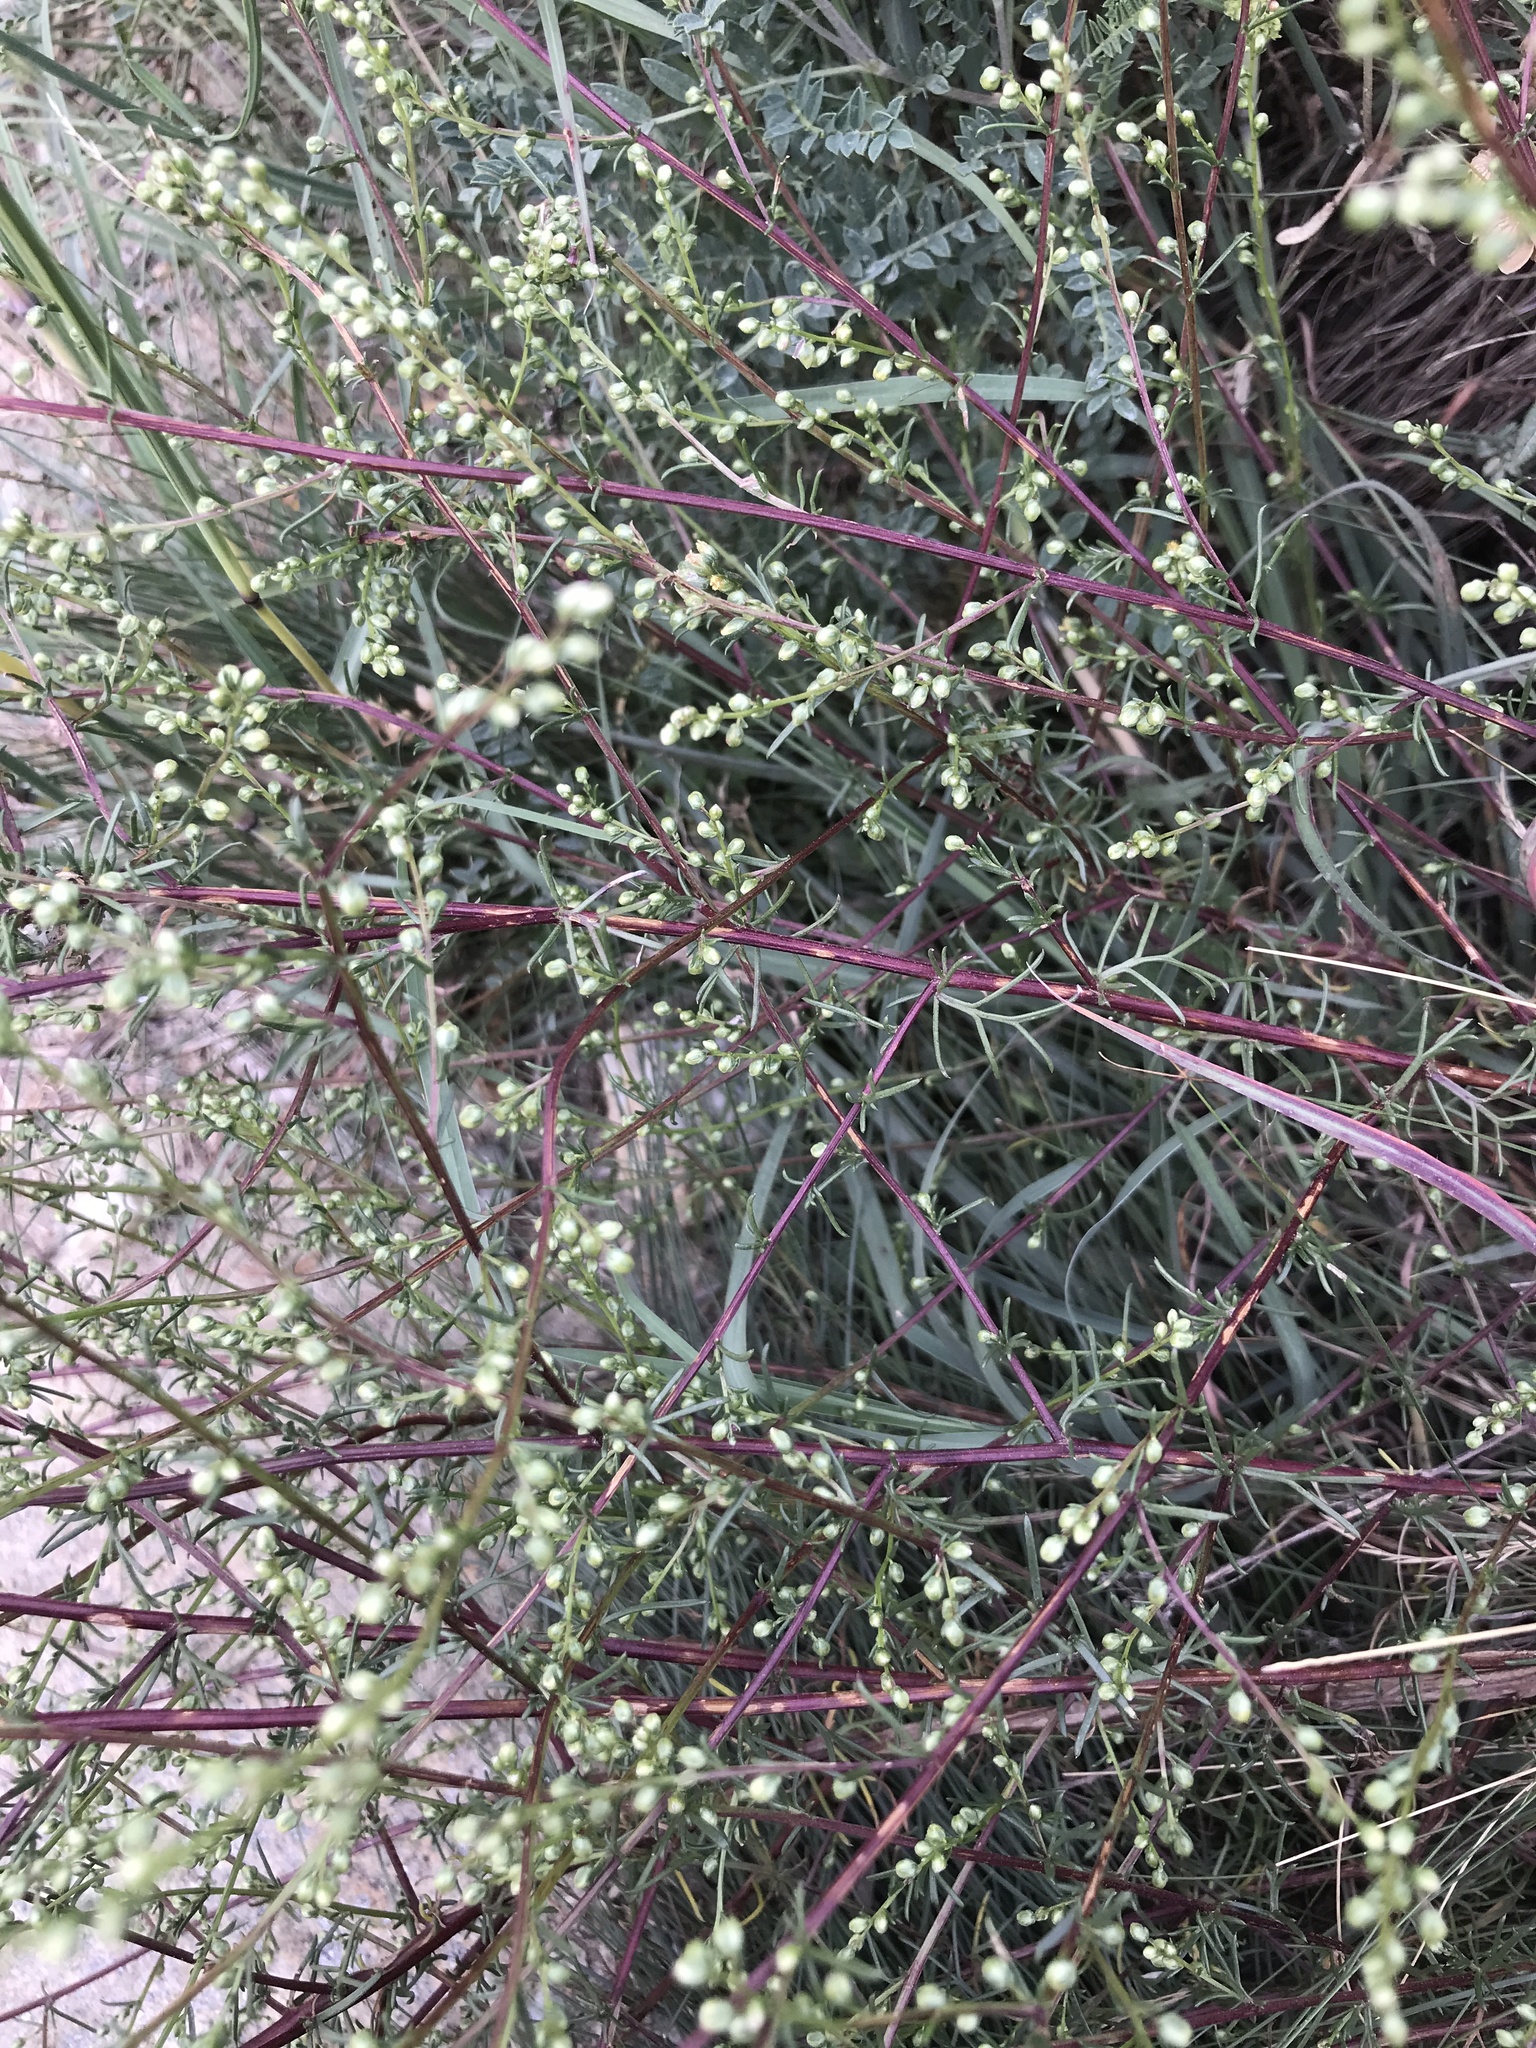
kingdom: Plantae
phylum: Tracheophyta
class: Magnoliopsida
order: Asterales
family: Asteraceae
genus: Artemisia
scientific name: Artemisia campestris
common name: Field wormwood
